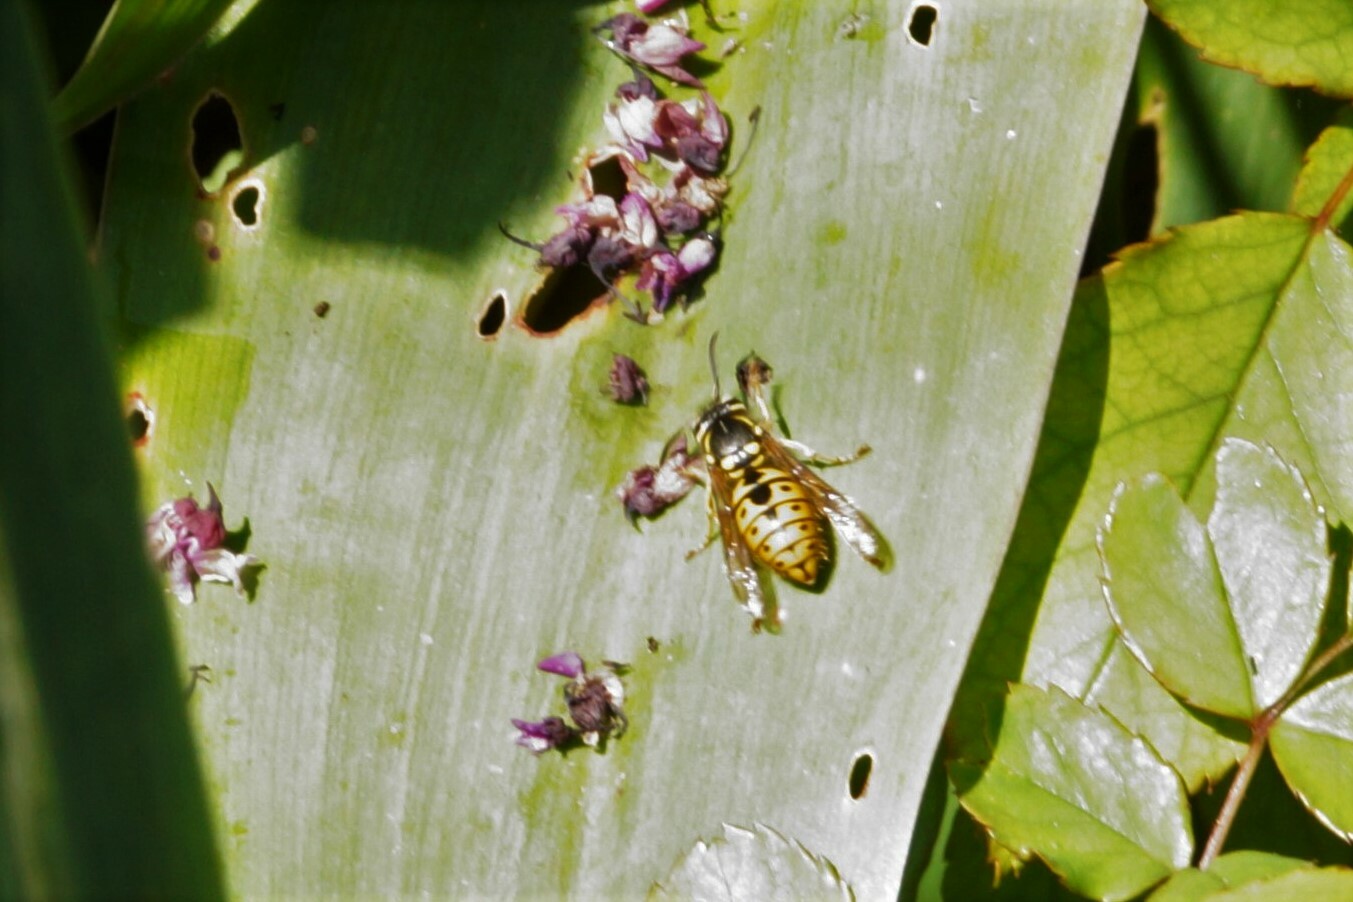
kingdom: Animalia
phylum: Arthropoda
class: Insecta
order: Hymenoptera
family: Vespidae
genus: Vespula
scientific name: Vespula germanica
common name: German wasp
